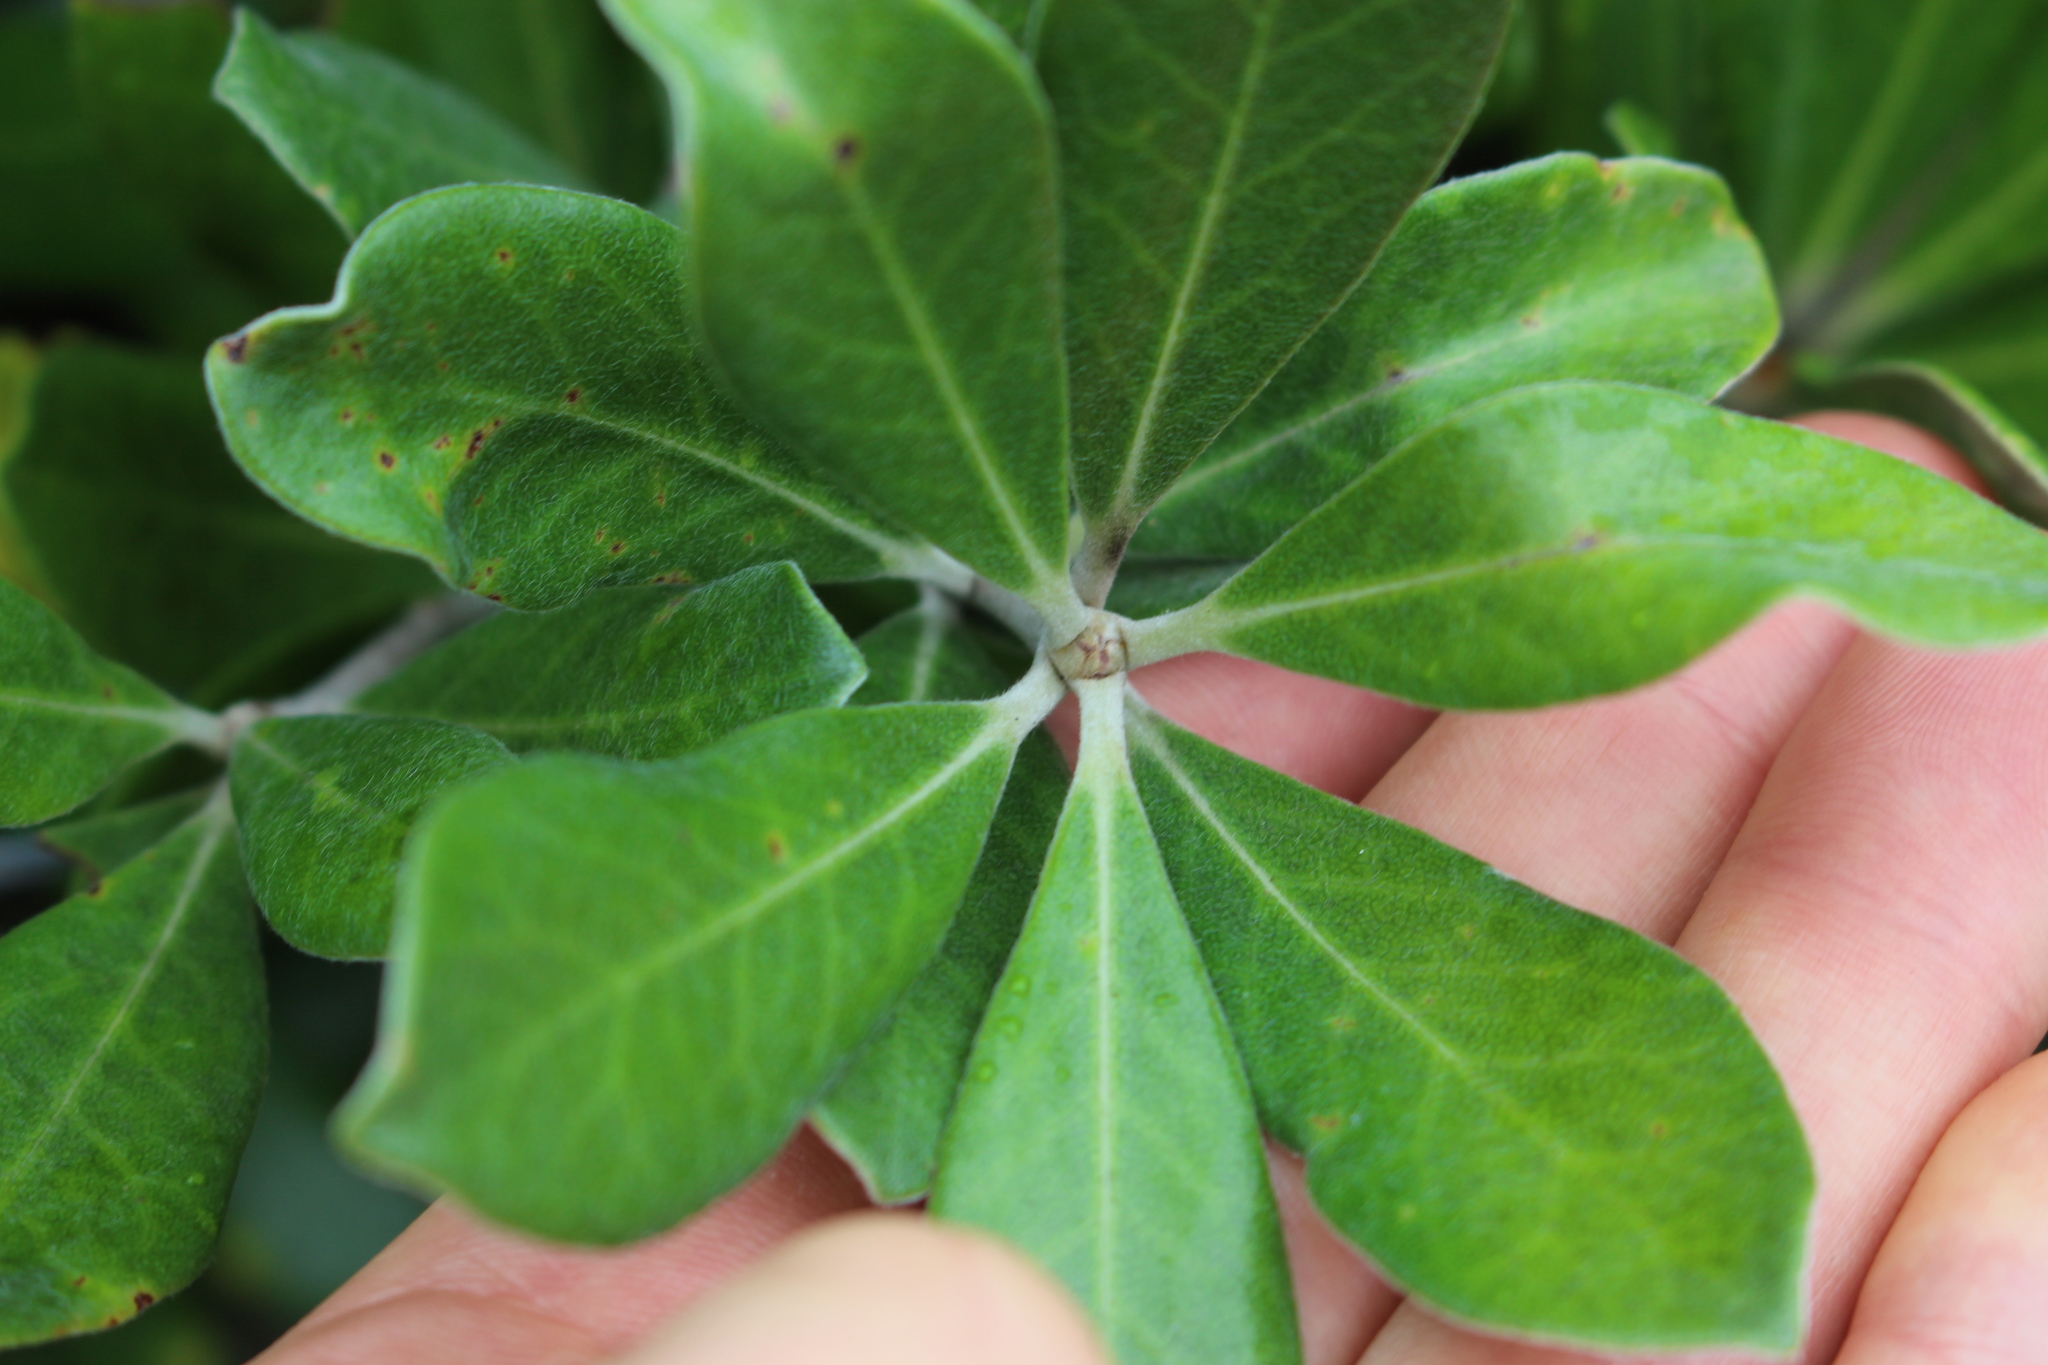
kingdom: Plantae
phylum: Tracheophyta
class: Magnoliopsida
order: Apiales
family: Pittosporaceae
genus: Pittosporum
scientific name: Pittosporum crassifolium
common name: Karo
